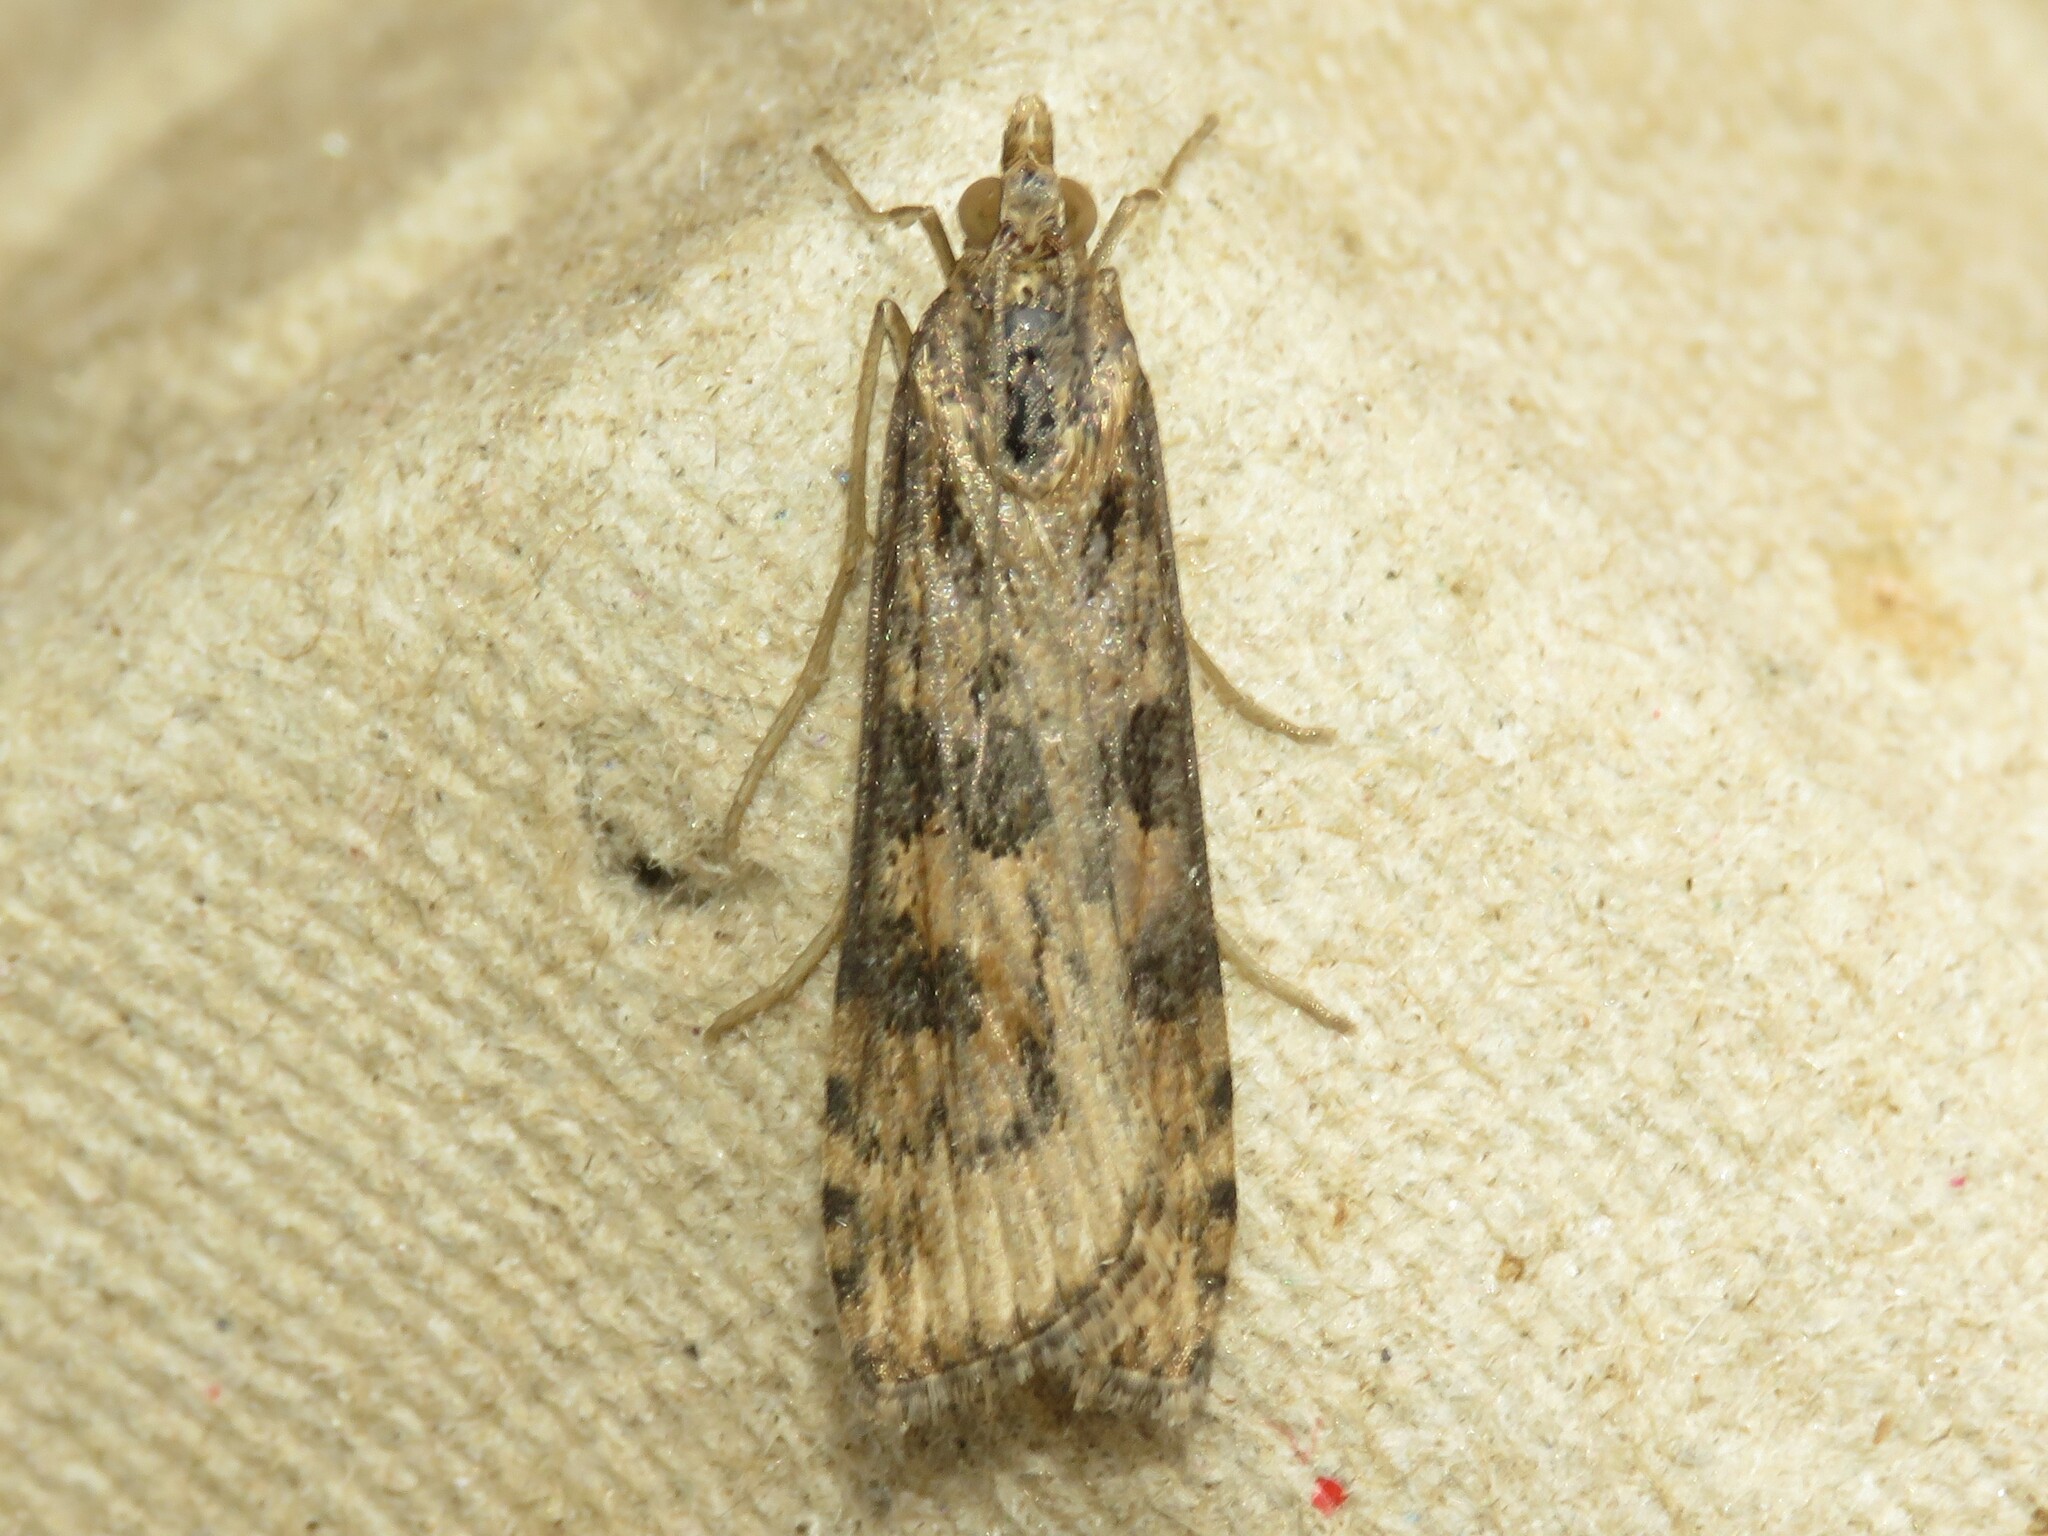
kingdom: Animalia
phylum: Arthropoda
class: Insecta
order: Lepidoptera
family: Crambidae
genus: Nomophila
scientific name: Nomophila nearctica
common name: American rush veneer
